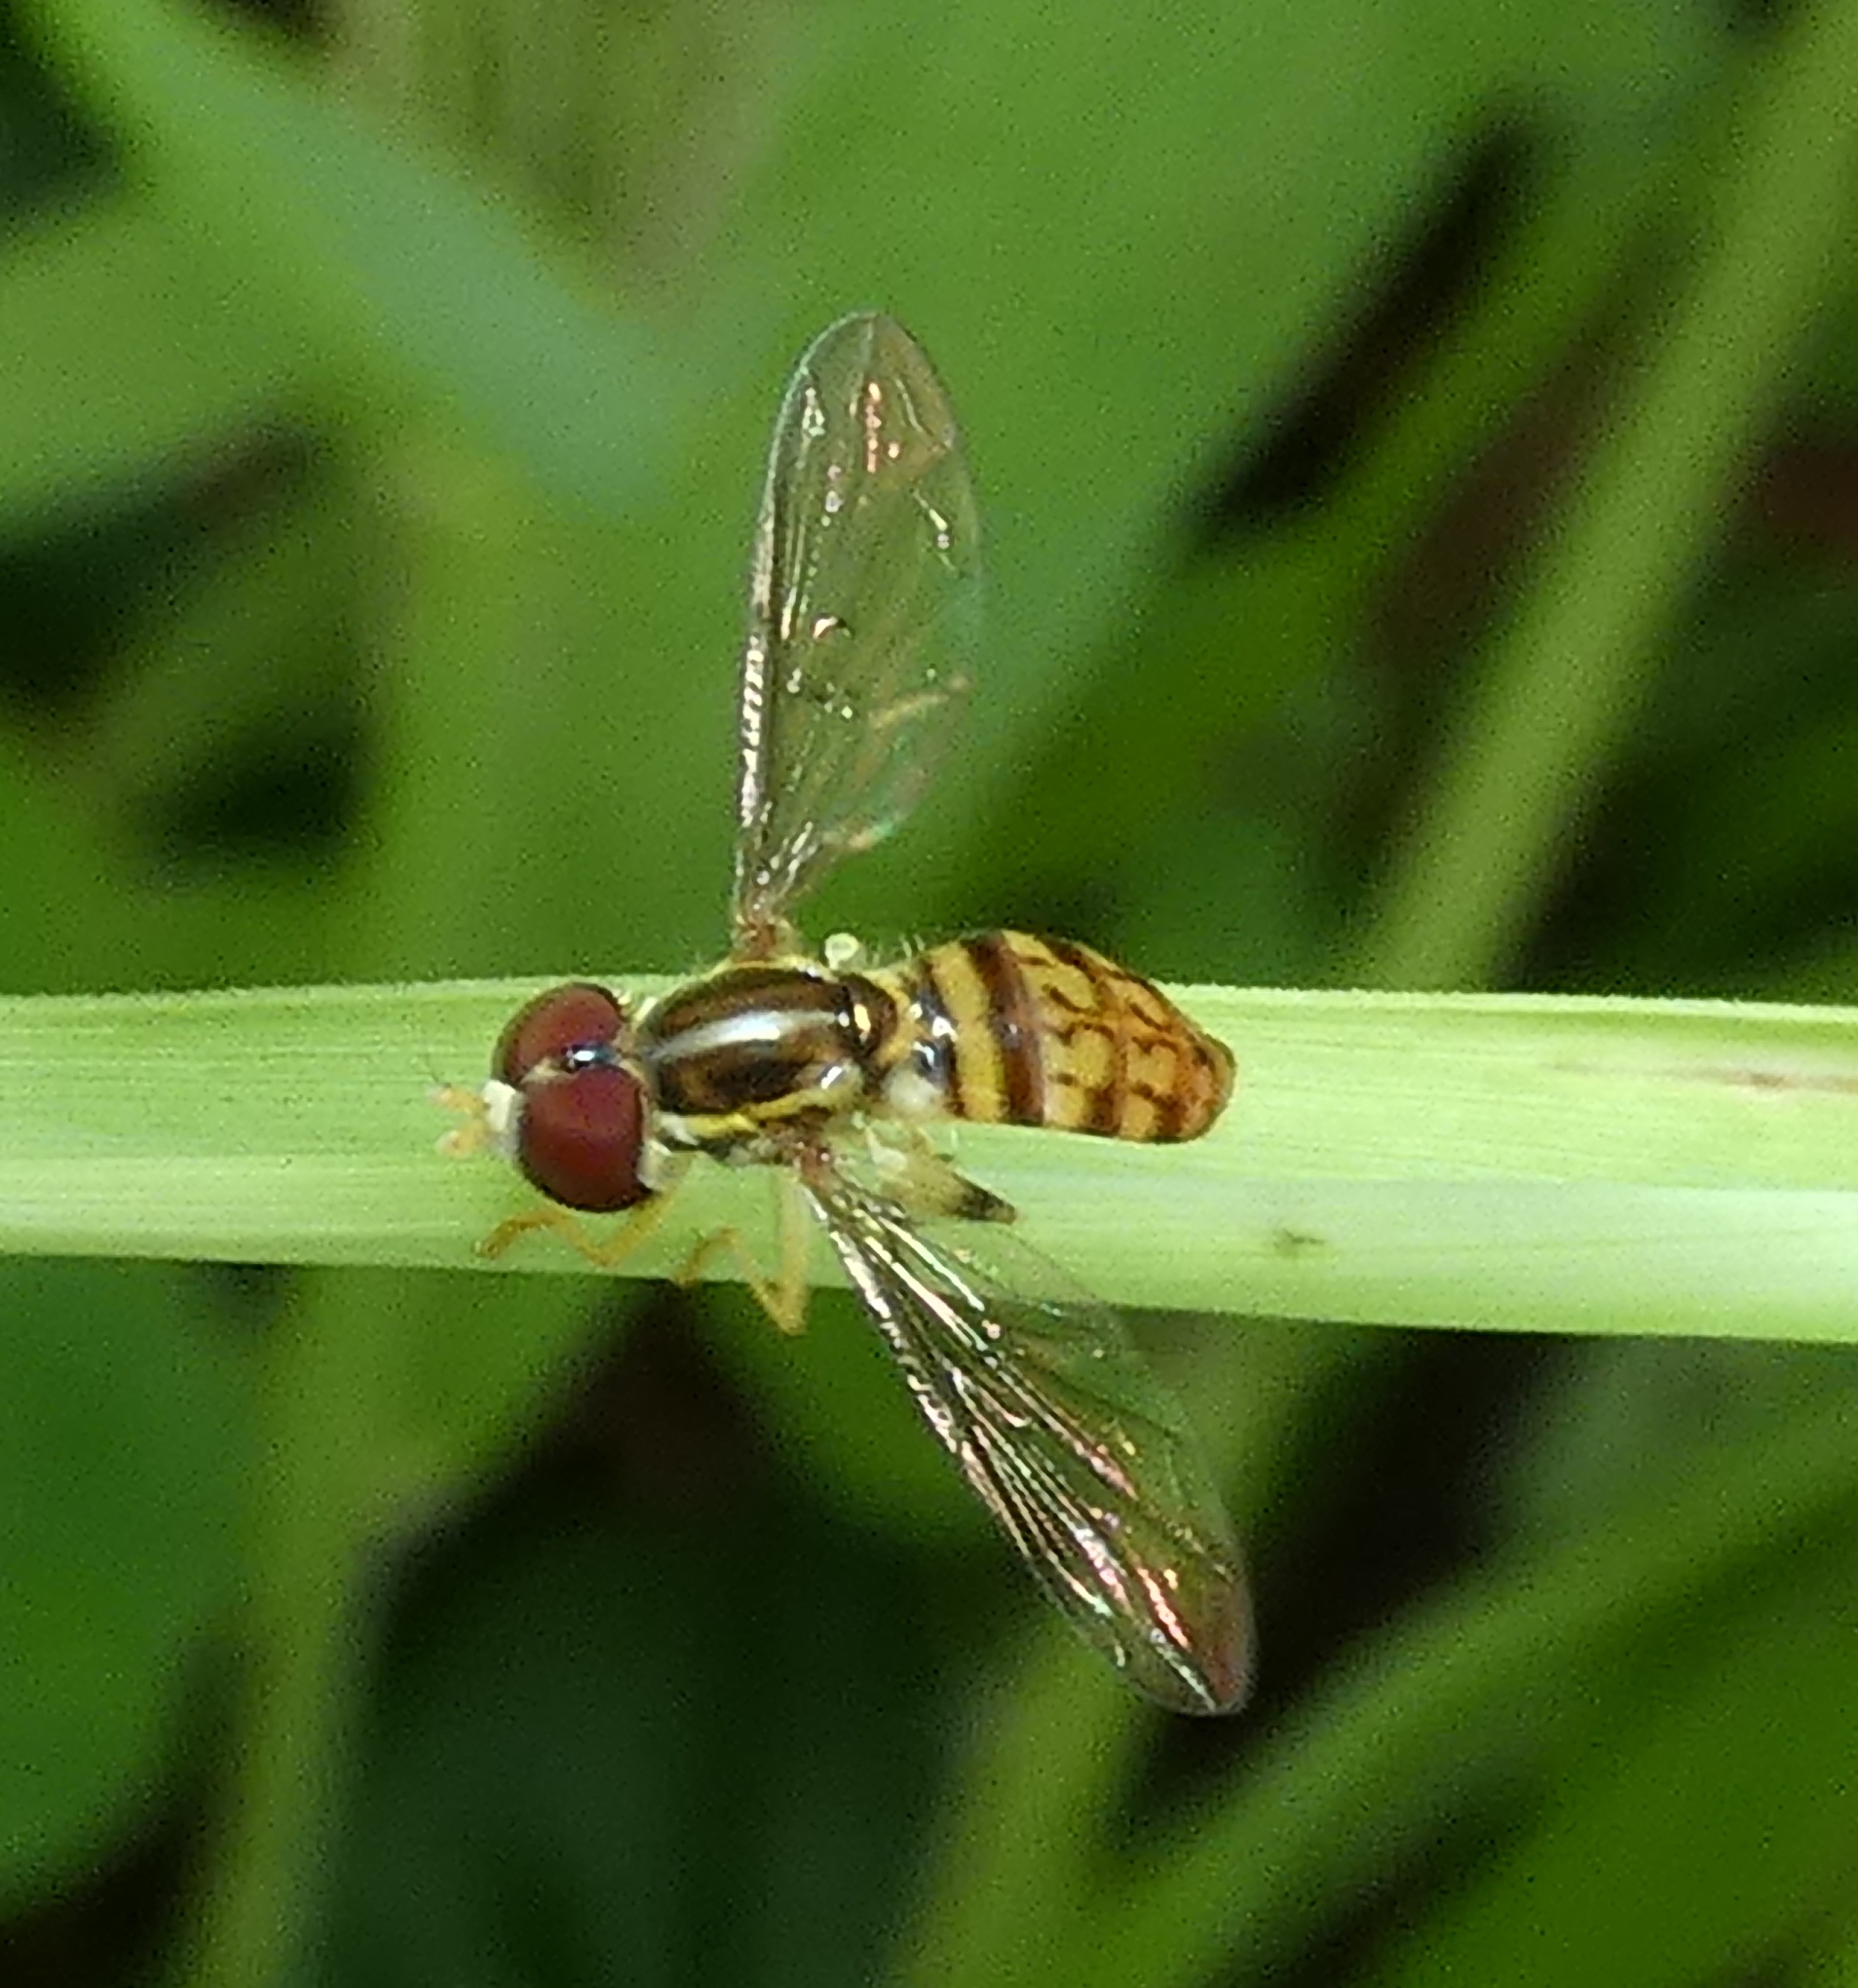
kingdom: Animalia
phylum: Arthropoda
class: Insecta
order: Diptera
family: Syrphidae
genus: Toxomerus
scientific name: Toxomerus pictus
